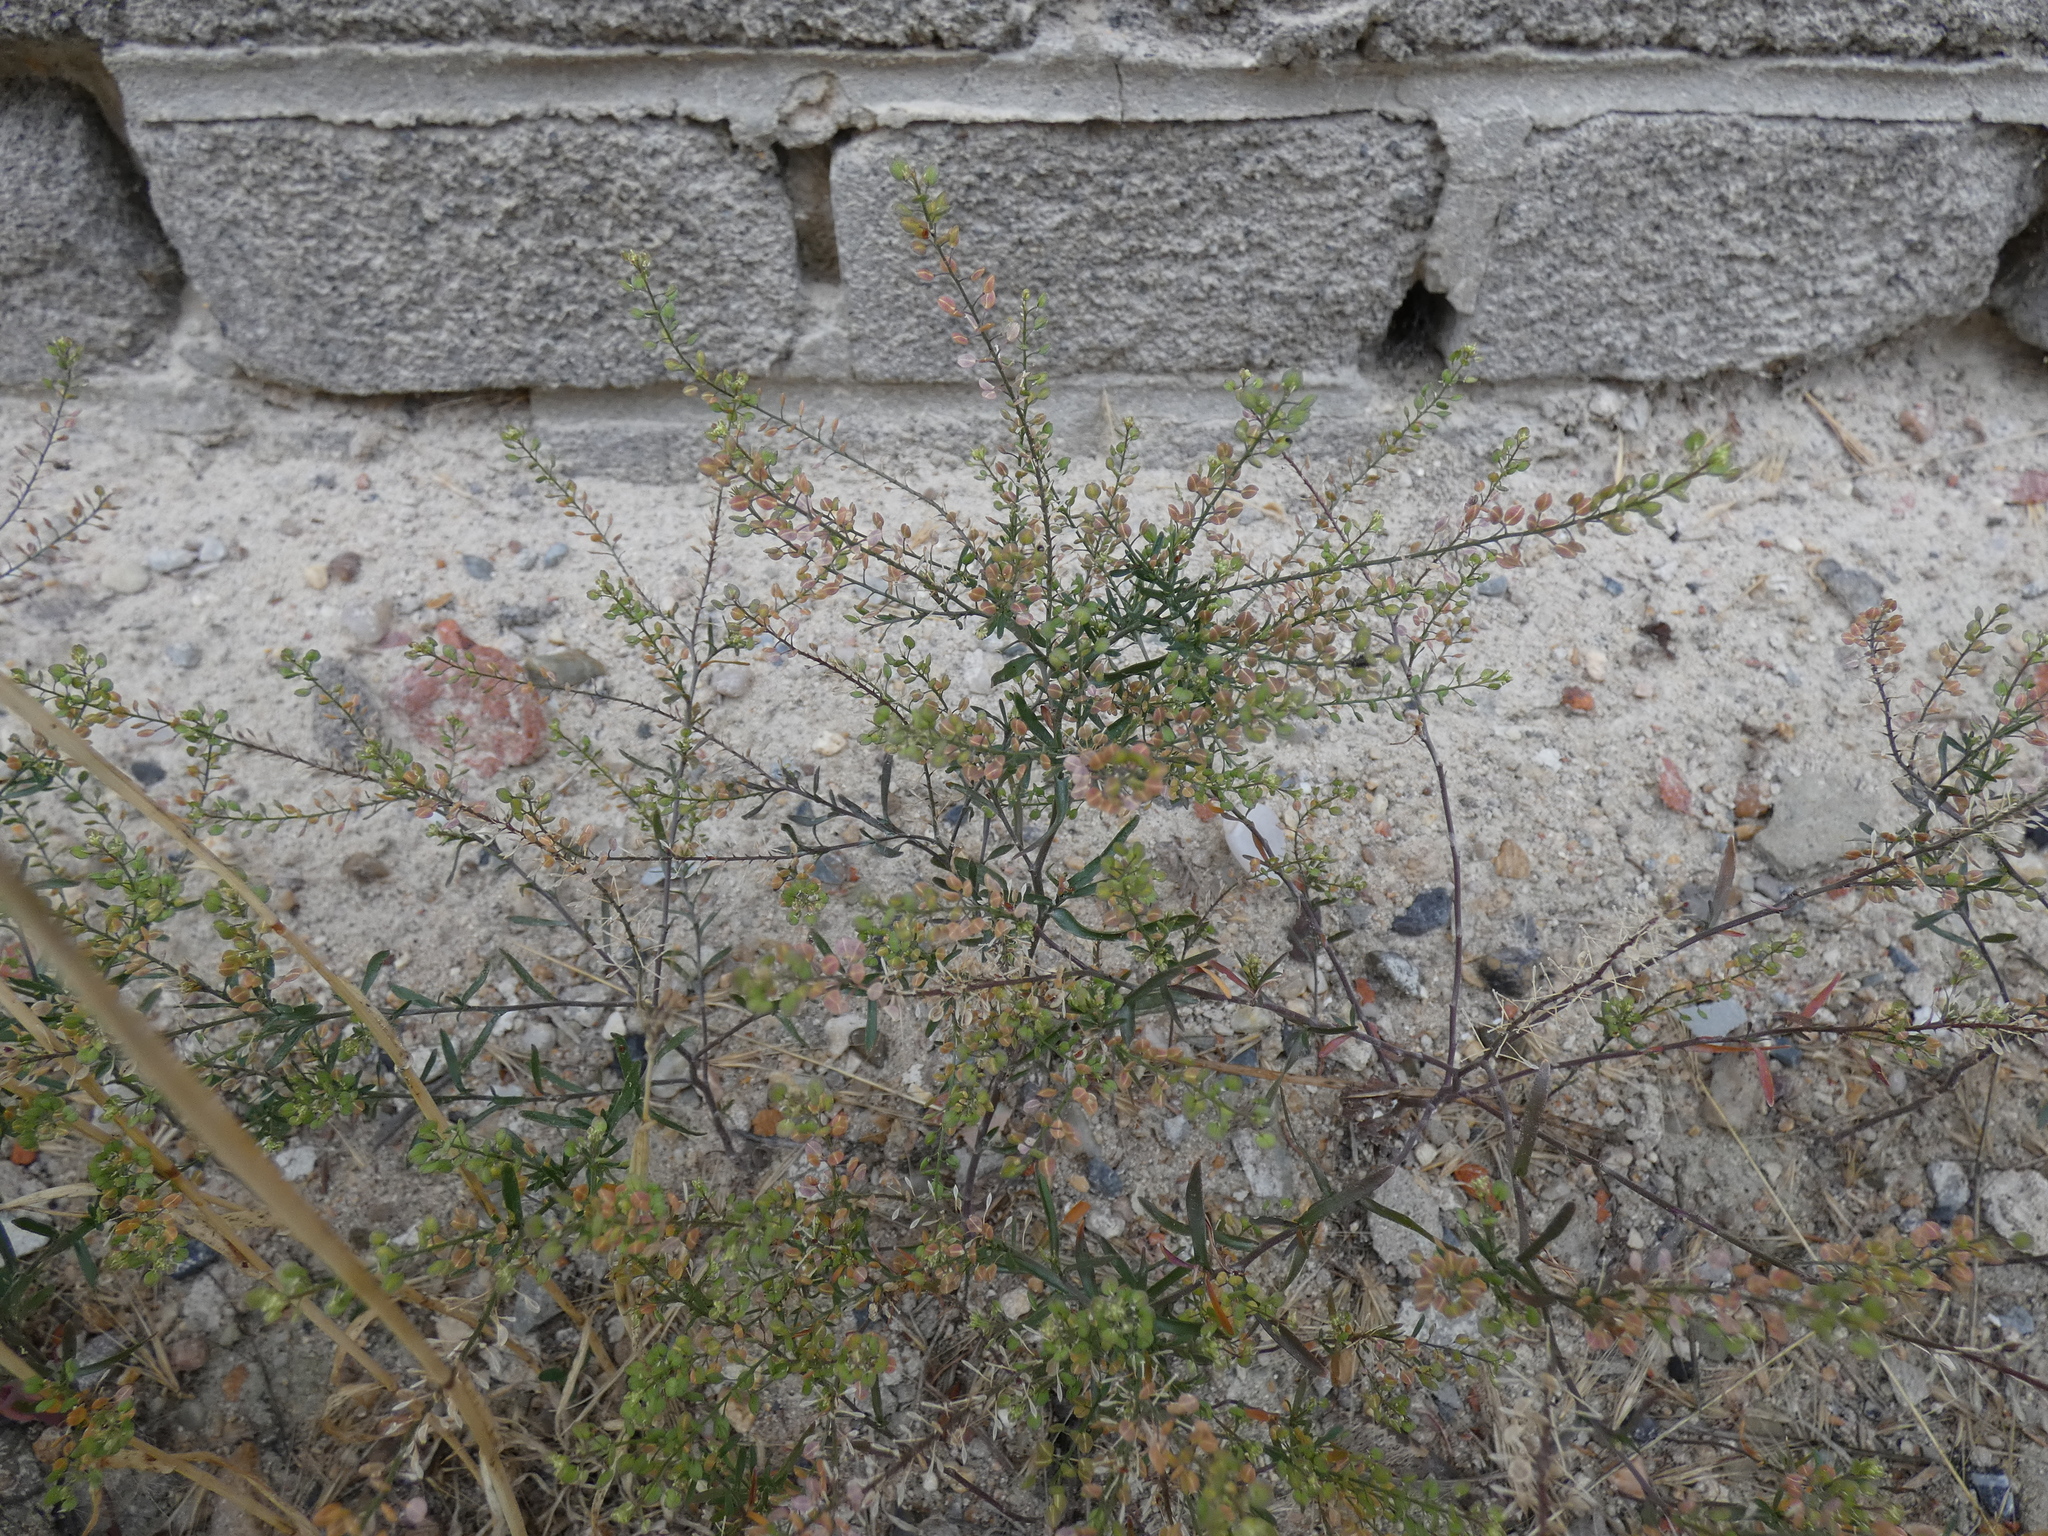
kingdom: Plantae
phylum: Tracheophyta
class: Magnoliopsida
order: Brassicales
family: Brassicaceae
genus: Lepidium
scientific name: Lepidium ruderale
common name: Narrow-leaved pepperwort
